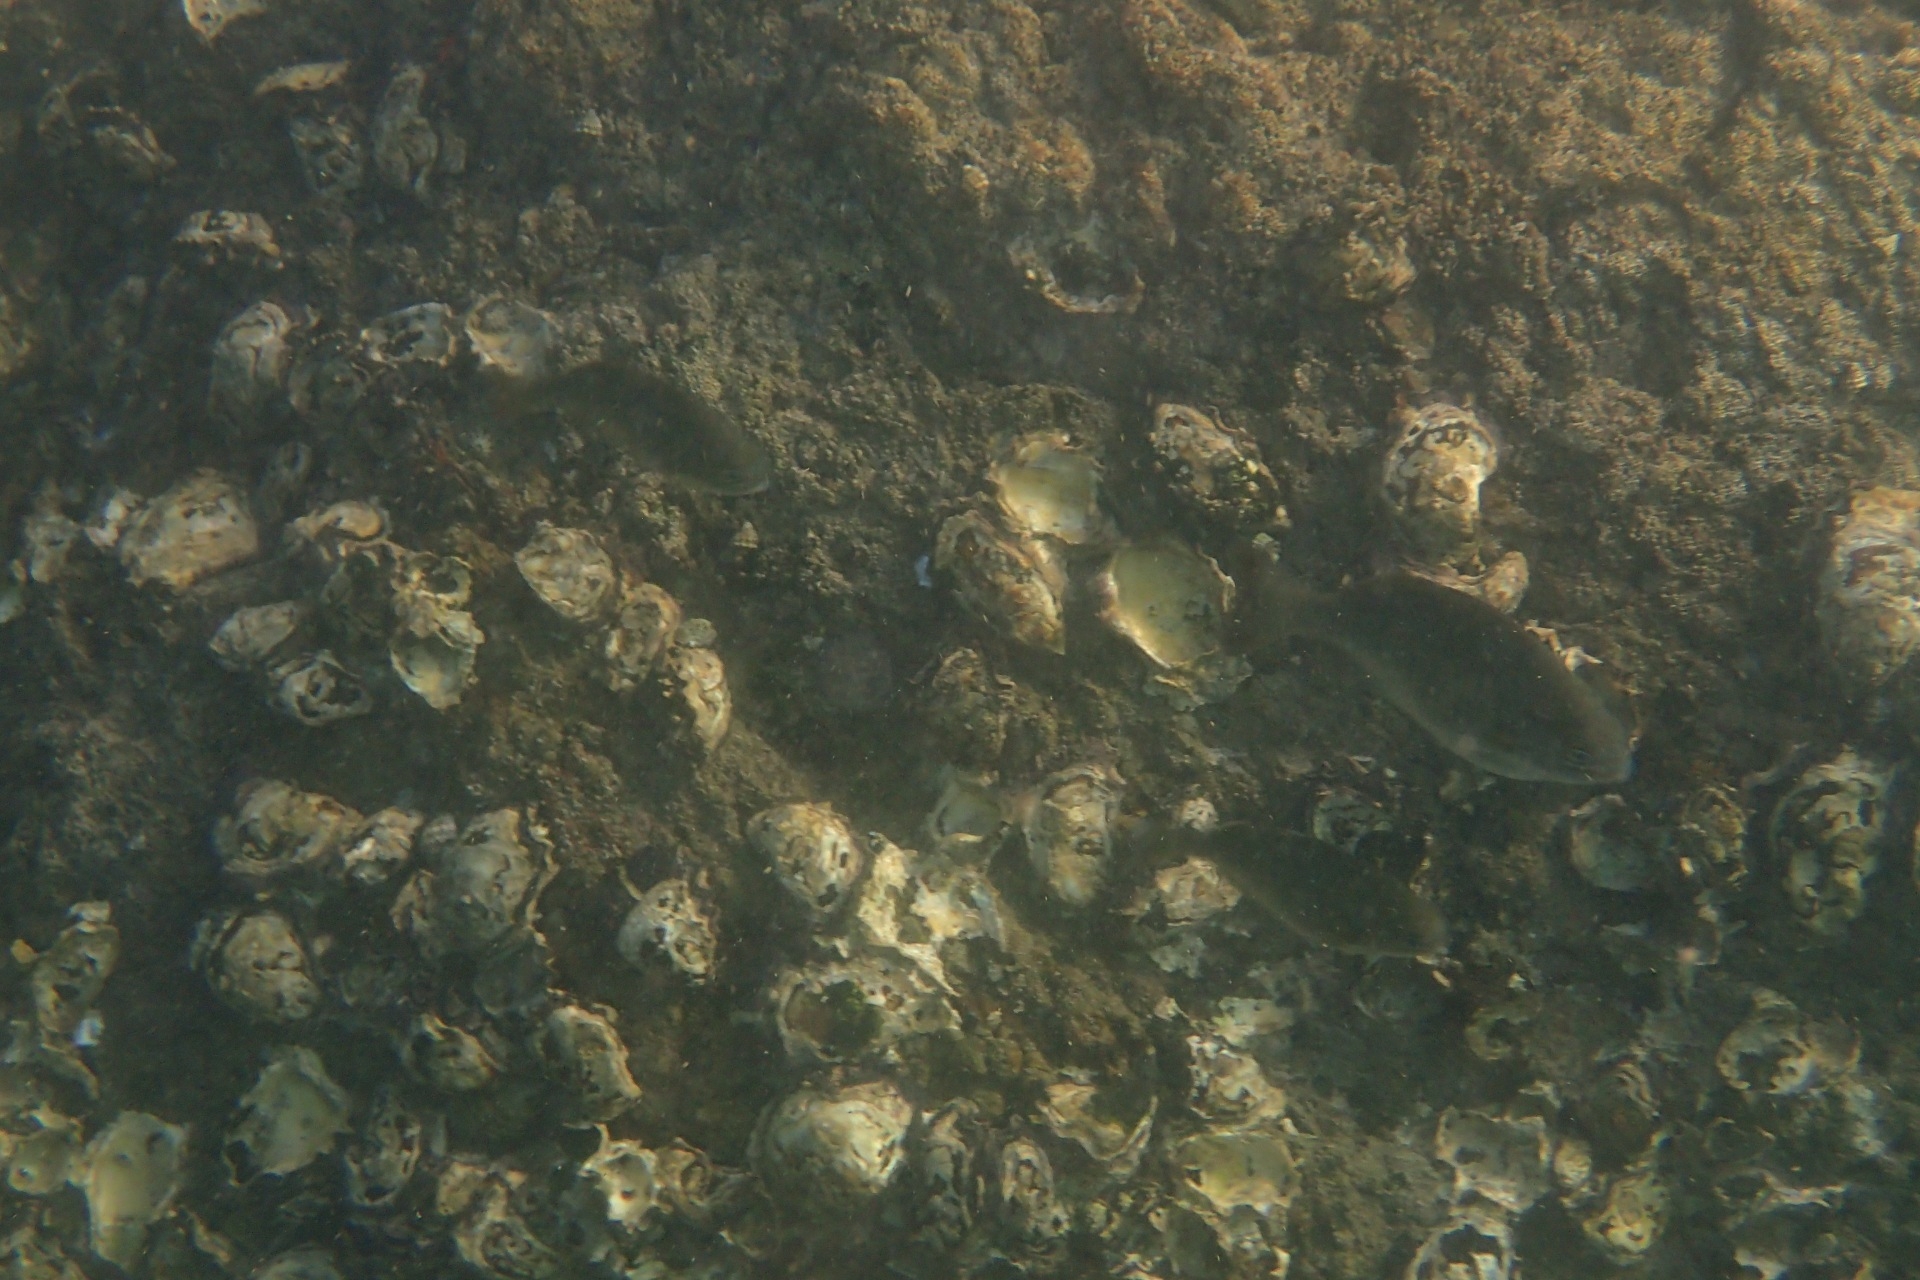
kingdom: Animalia
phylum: Chordata
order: Perciformes
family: Kyphosidae
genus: Kyphosus
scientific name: Kyphosus sydneyanus
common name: Silver drummer
